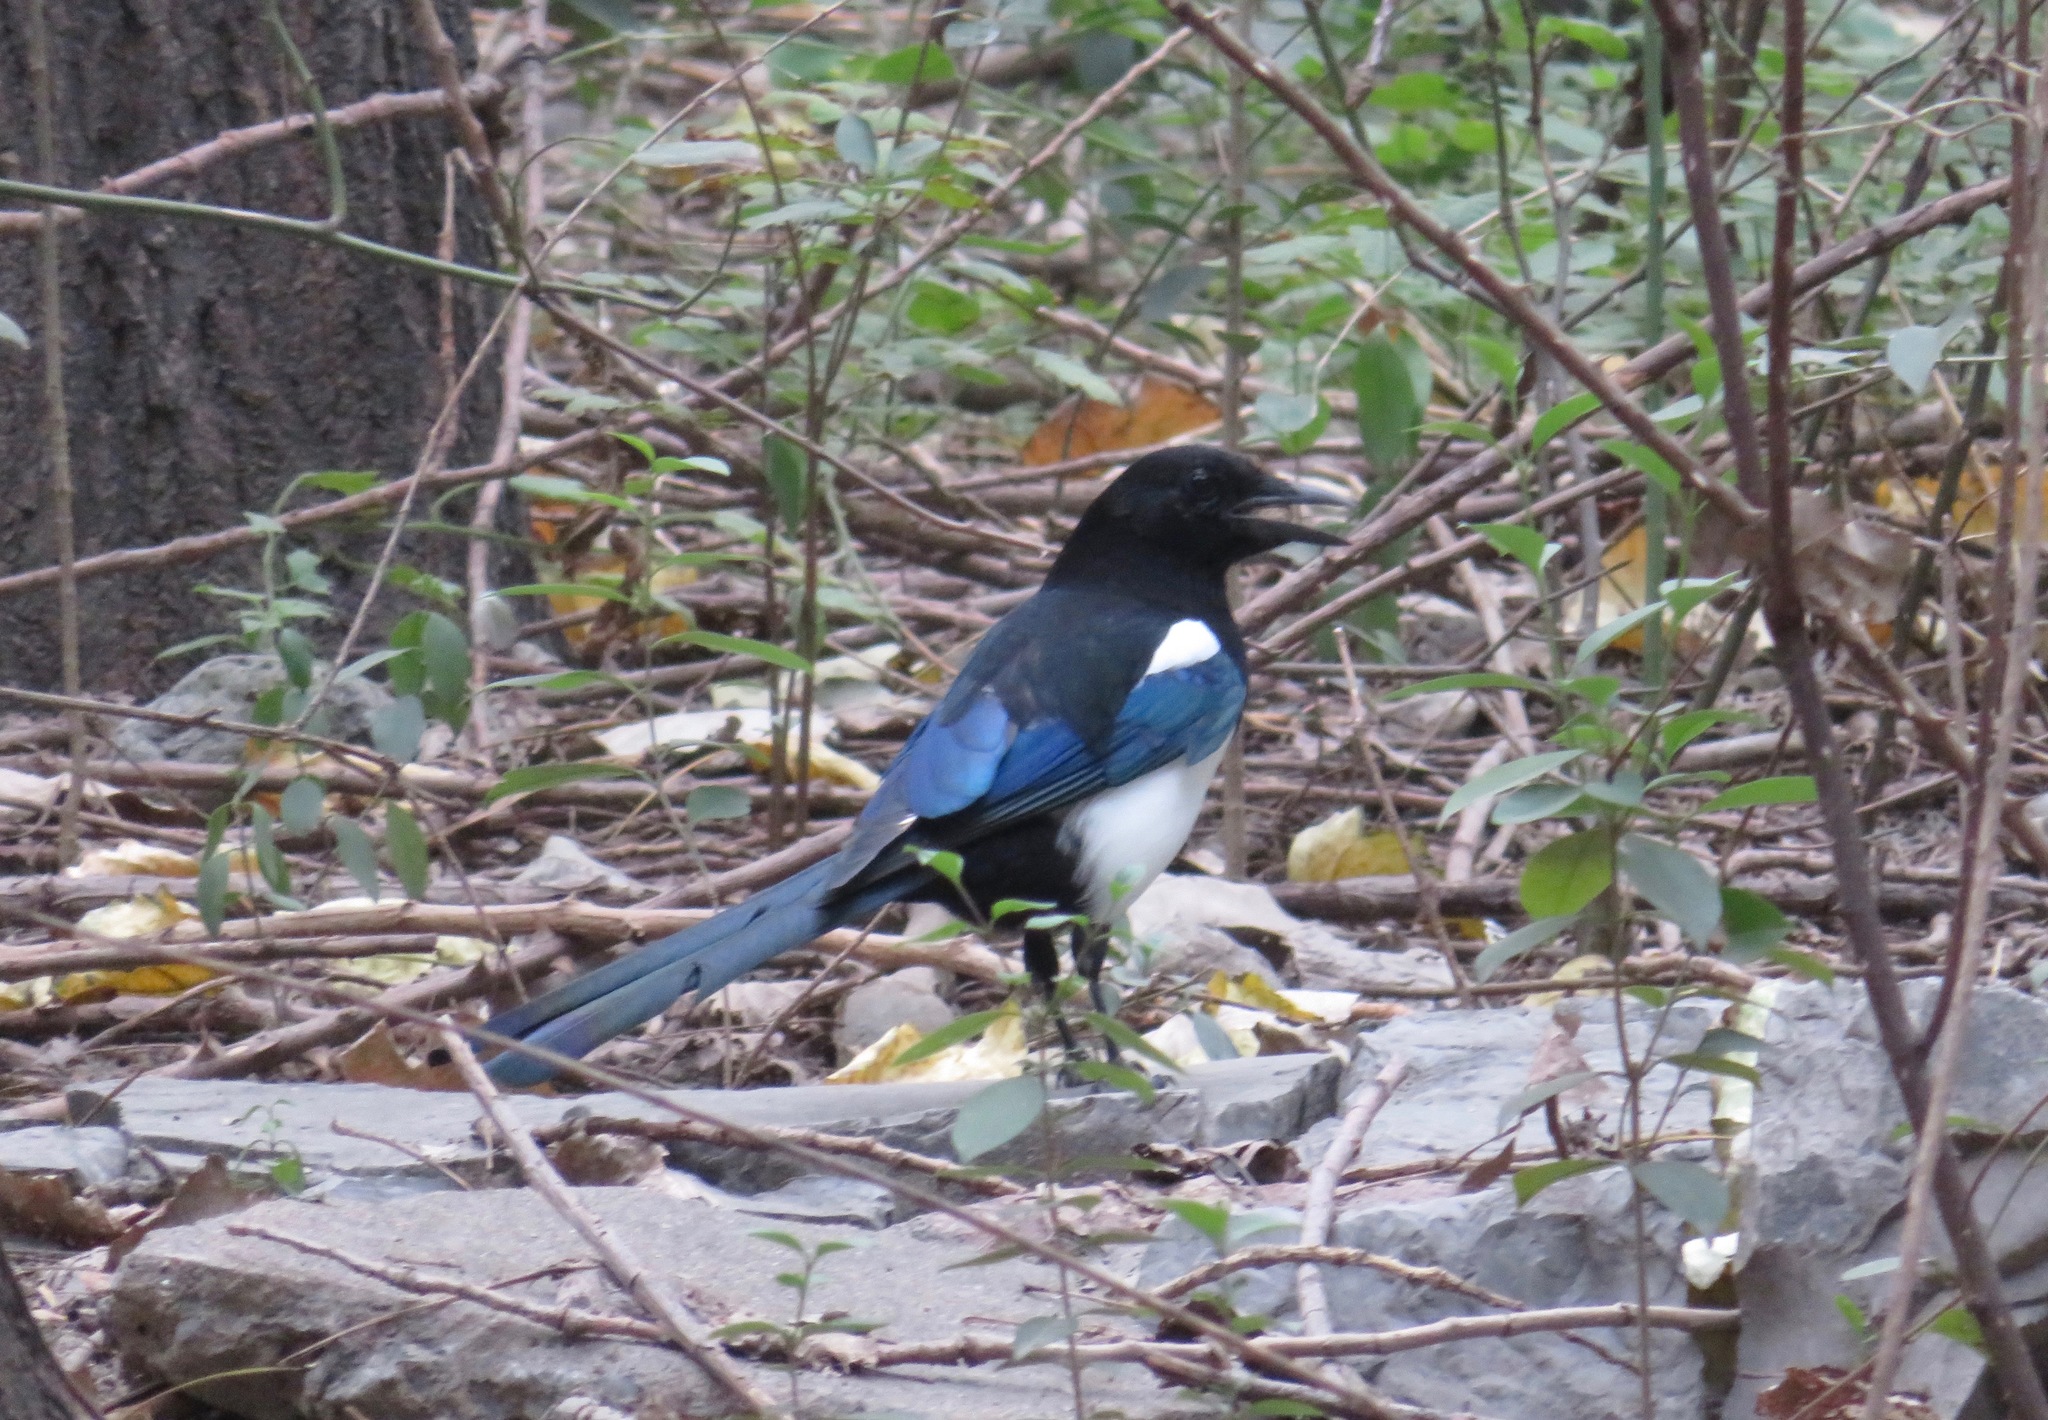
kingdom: Animalia
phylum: Chordata
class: Aves
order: Passeriformes
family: Corvidae
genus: Pica
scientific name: Pica serica
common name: Oriental magpie
